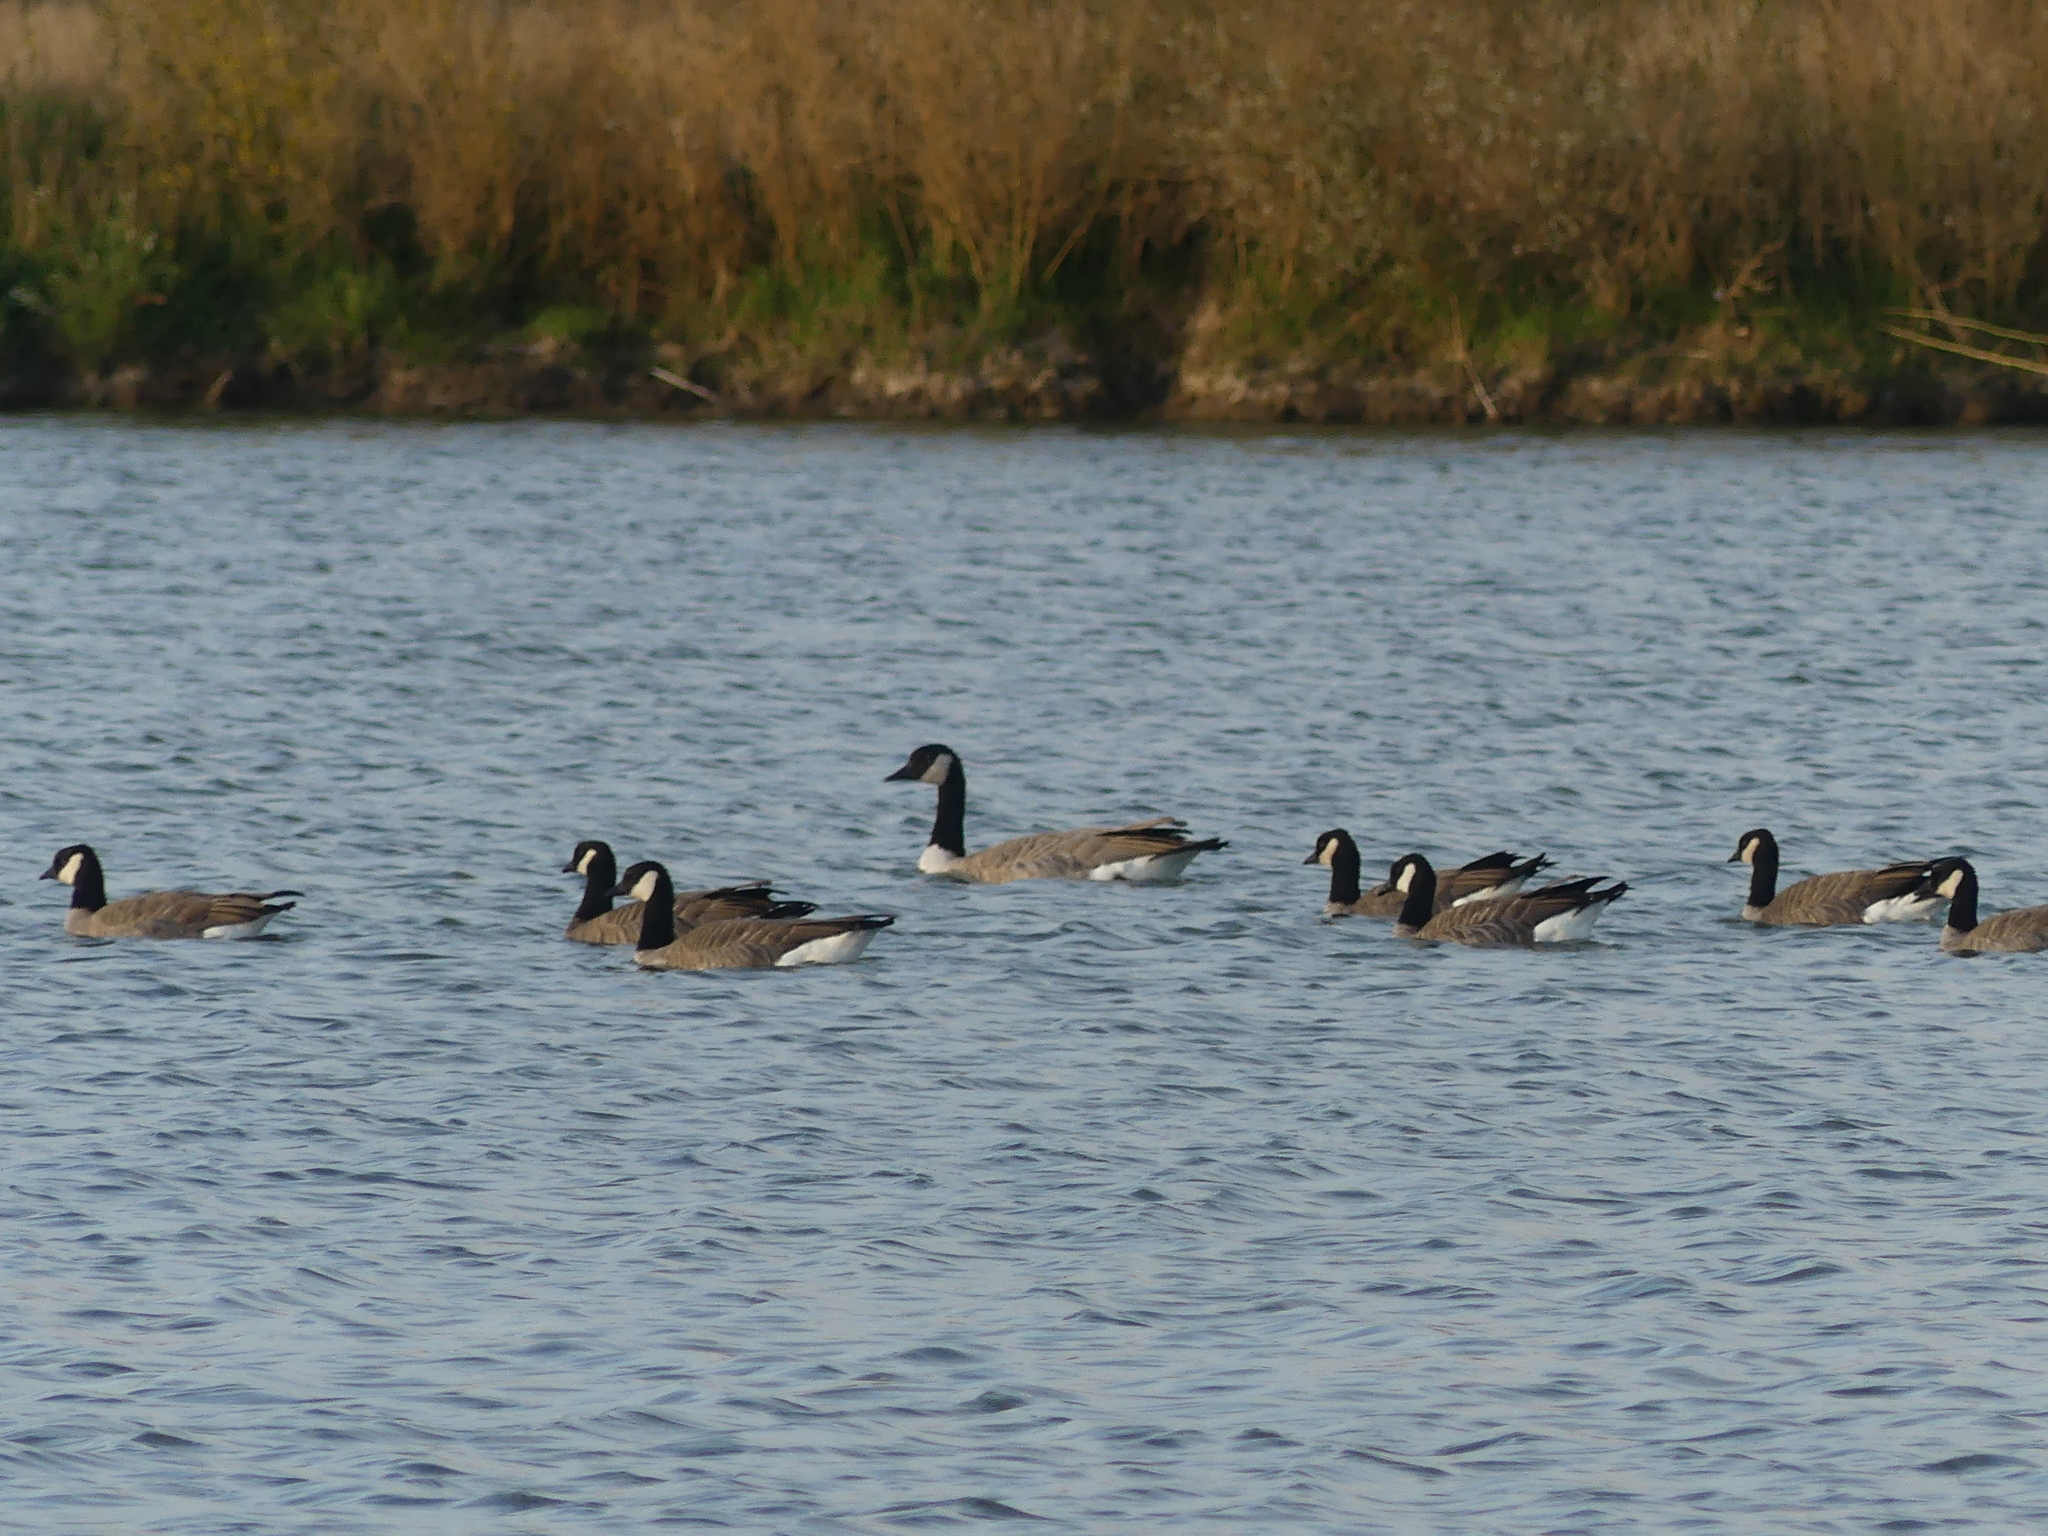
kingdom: Animalia
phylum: Chordata
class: Aves
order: Anseriformes
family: Anatidae
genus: Branta
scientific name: Branta hutchinsii
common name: Cackling goose
